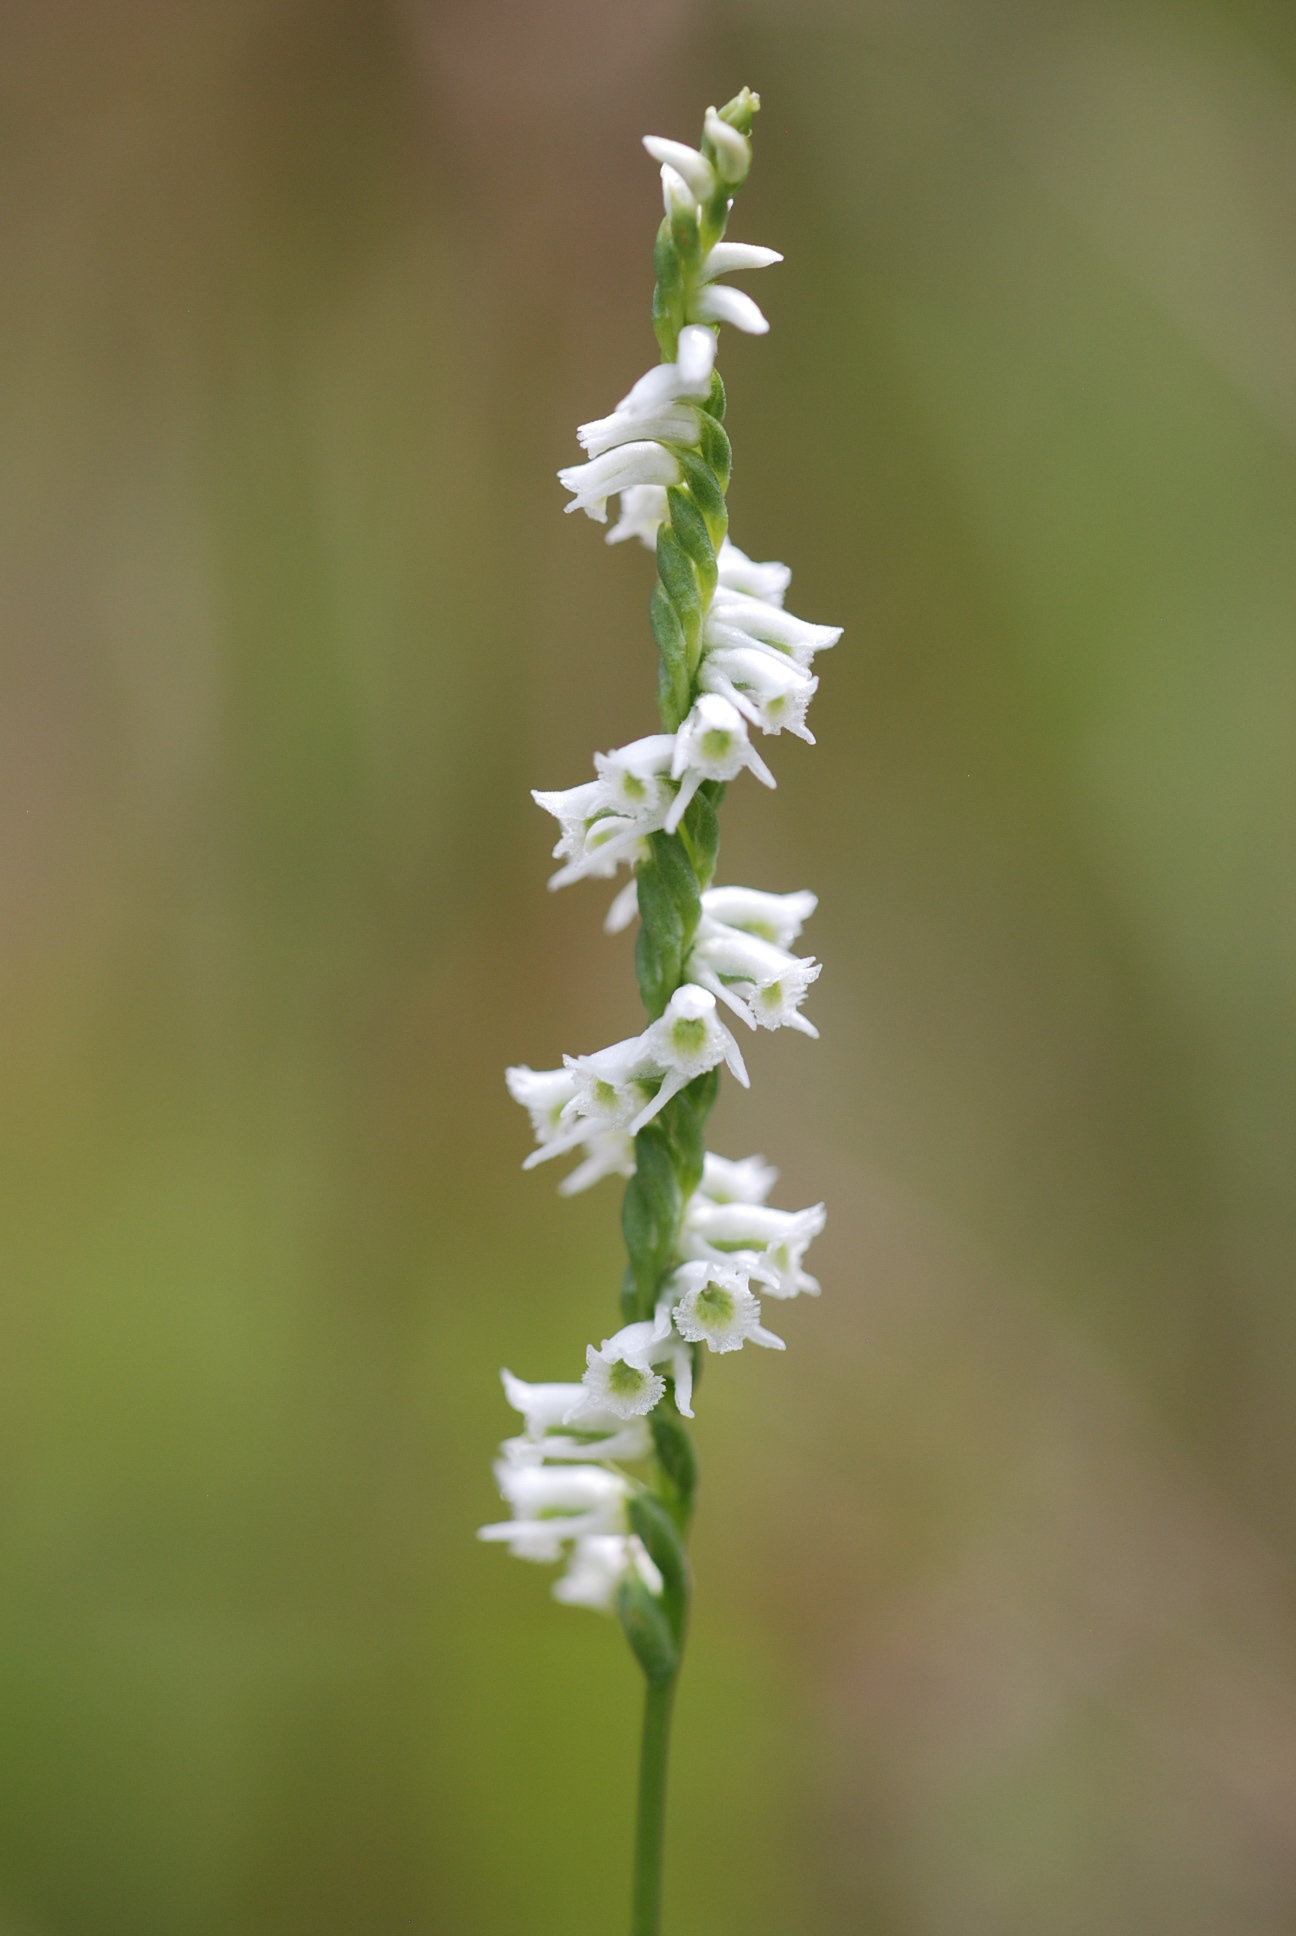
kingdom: Plantae
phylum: Tracheophyta
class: Liliopsida
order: Asparagales
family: Orchidaceae
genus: Spiranthes
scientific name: Spiranthes lacera
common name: Northern slender ladies'-tresses
